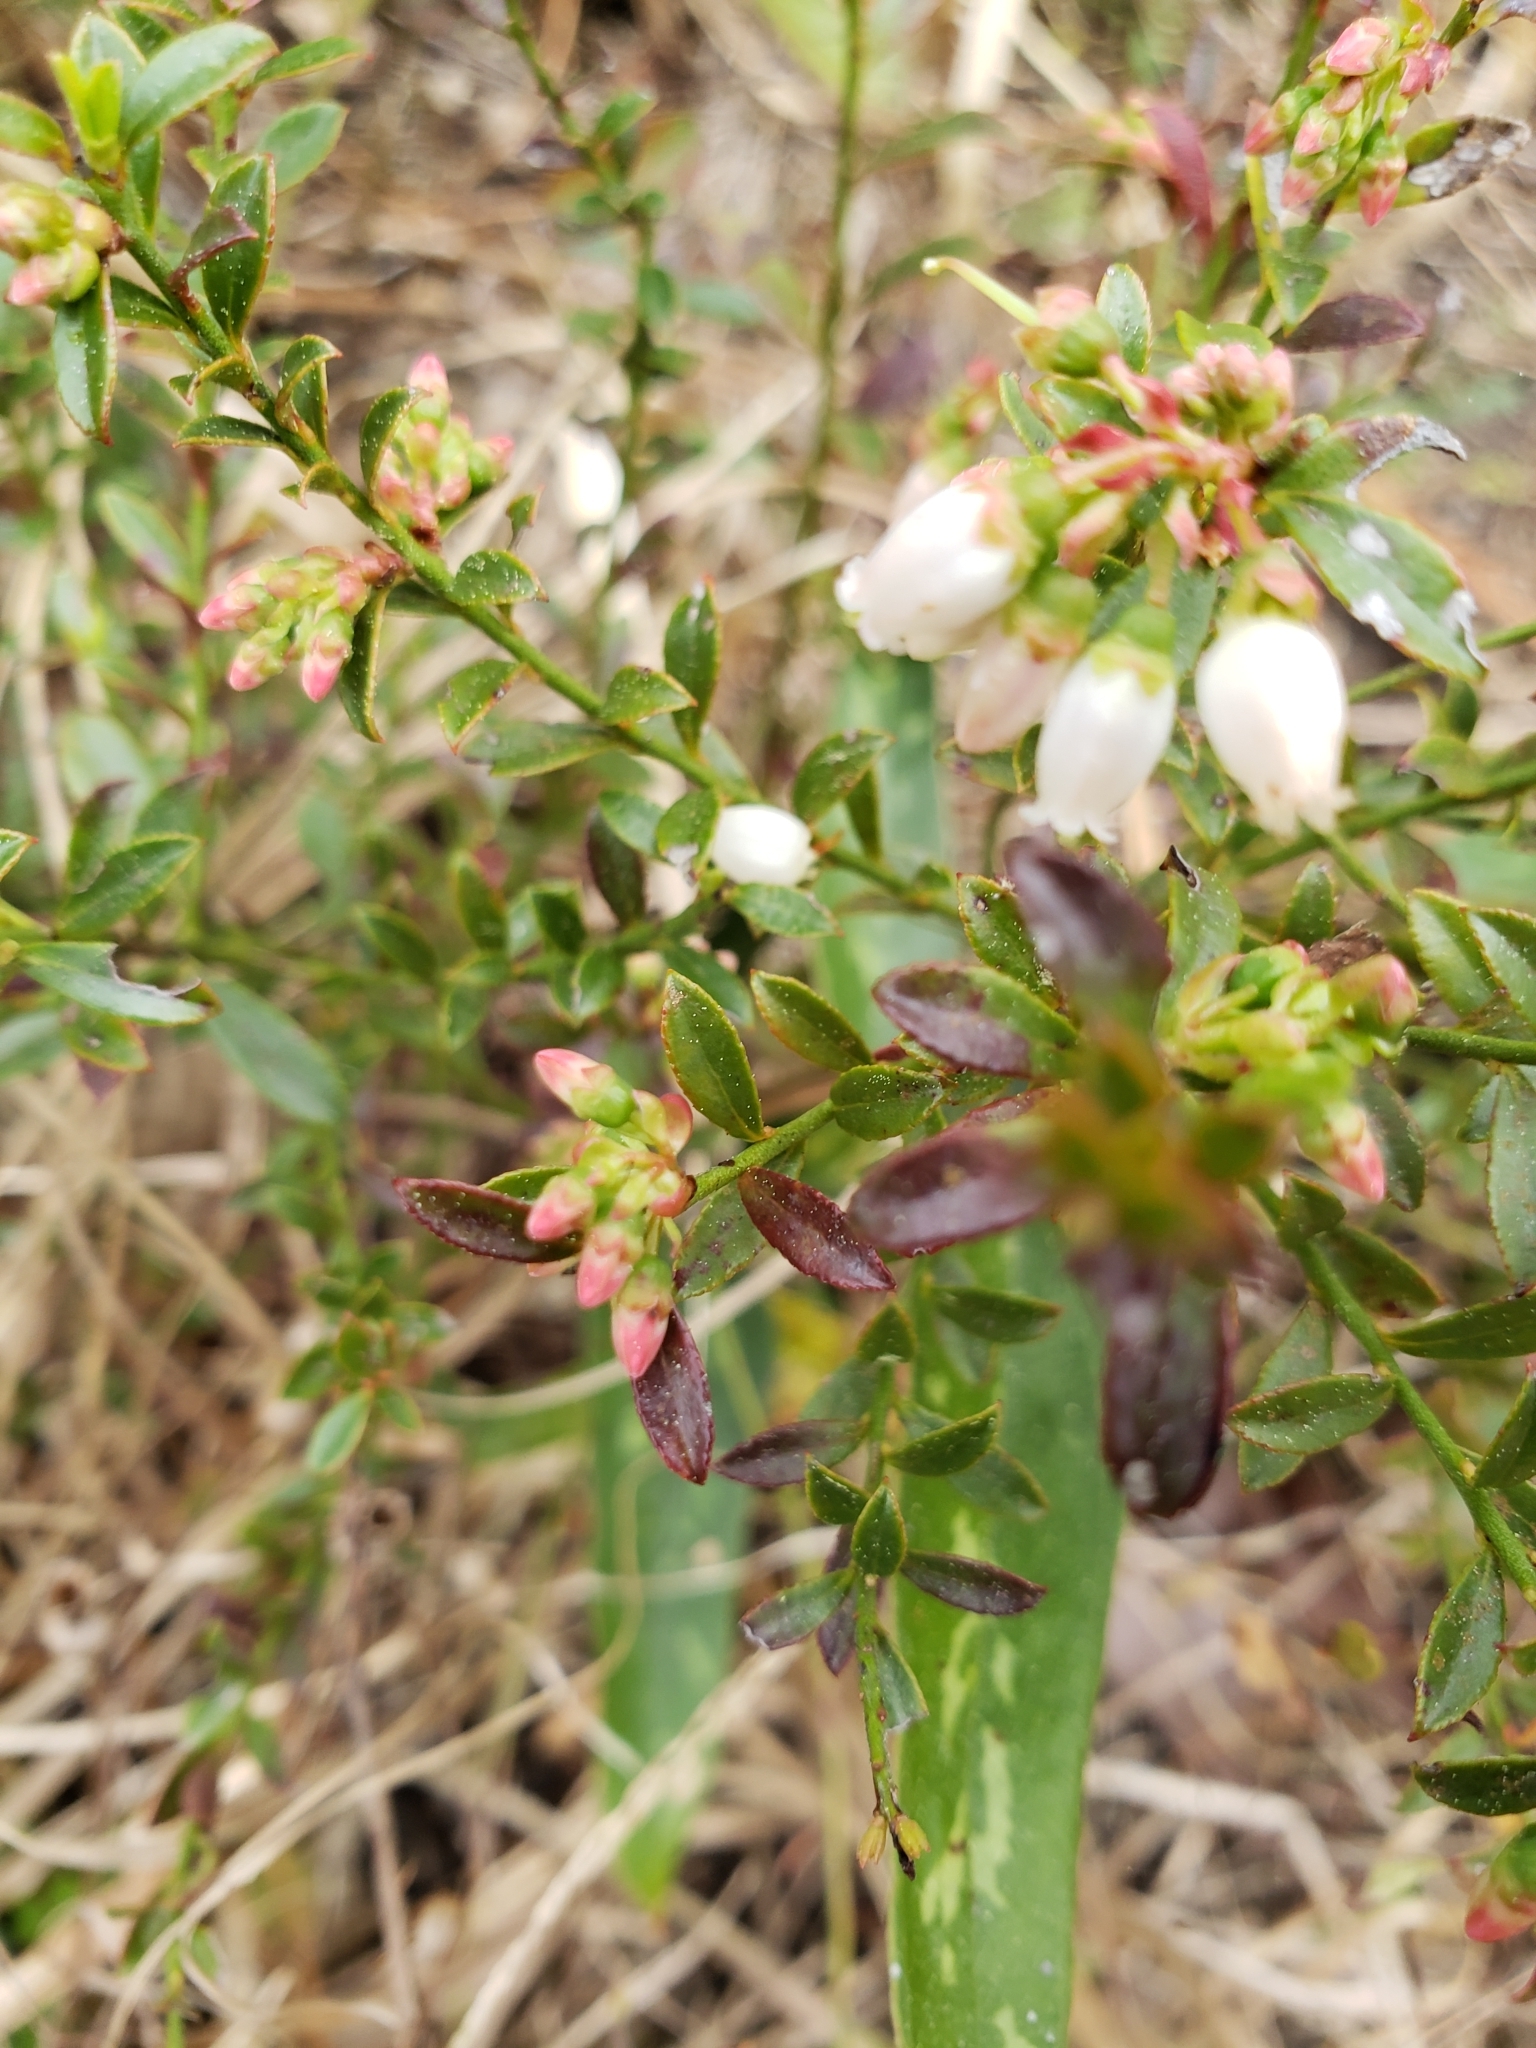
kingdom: Plantae
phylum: Tracheophyta
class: Magnoliopsida
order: Ericales
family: Ericaceae
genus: Vaccinium
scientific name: Vaccinium myrsinites
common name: Evergreen blueberry
